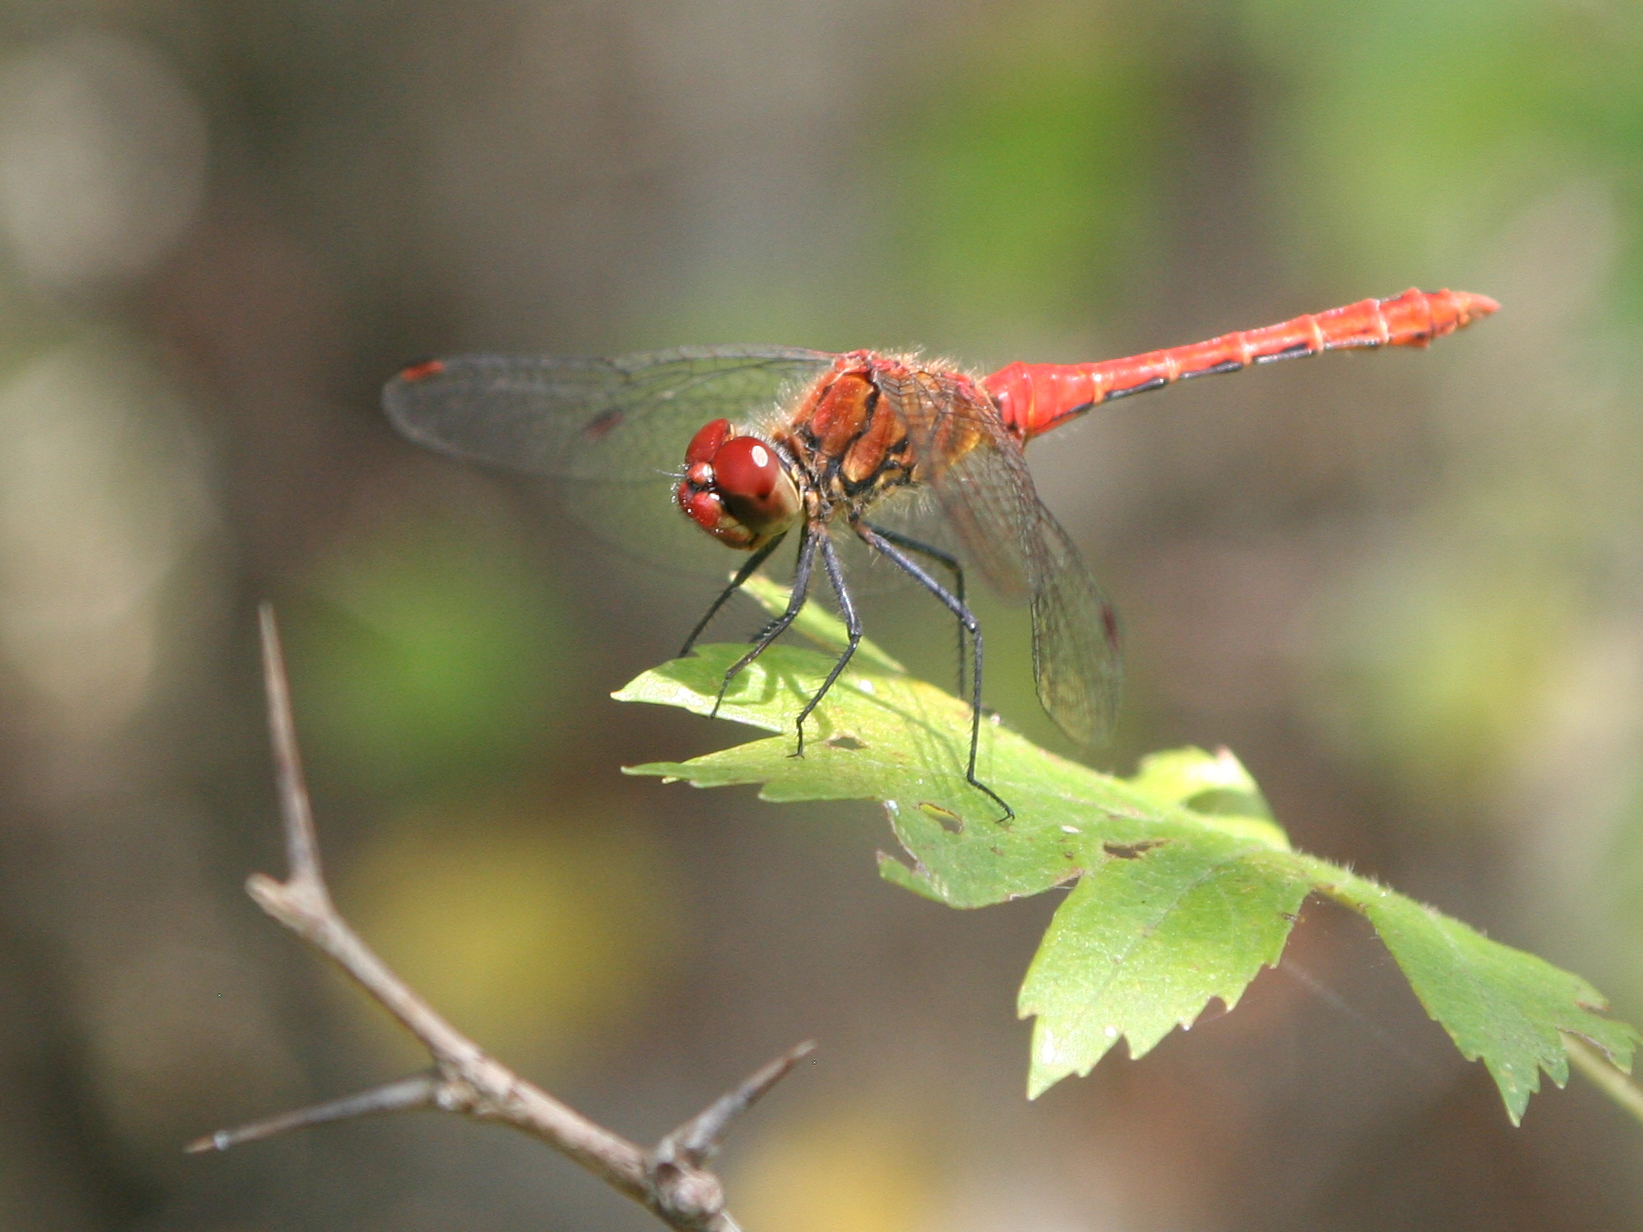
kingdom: Animalia
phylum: Arthropoda
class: Insecta
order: Odonata
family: Libellulidae
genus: Sympetrum
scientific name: Sympetrum sanguineum
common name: Ruddy darter
